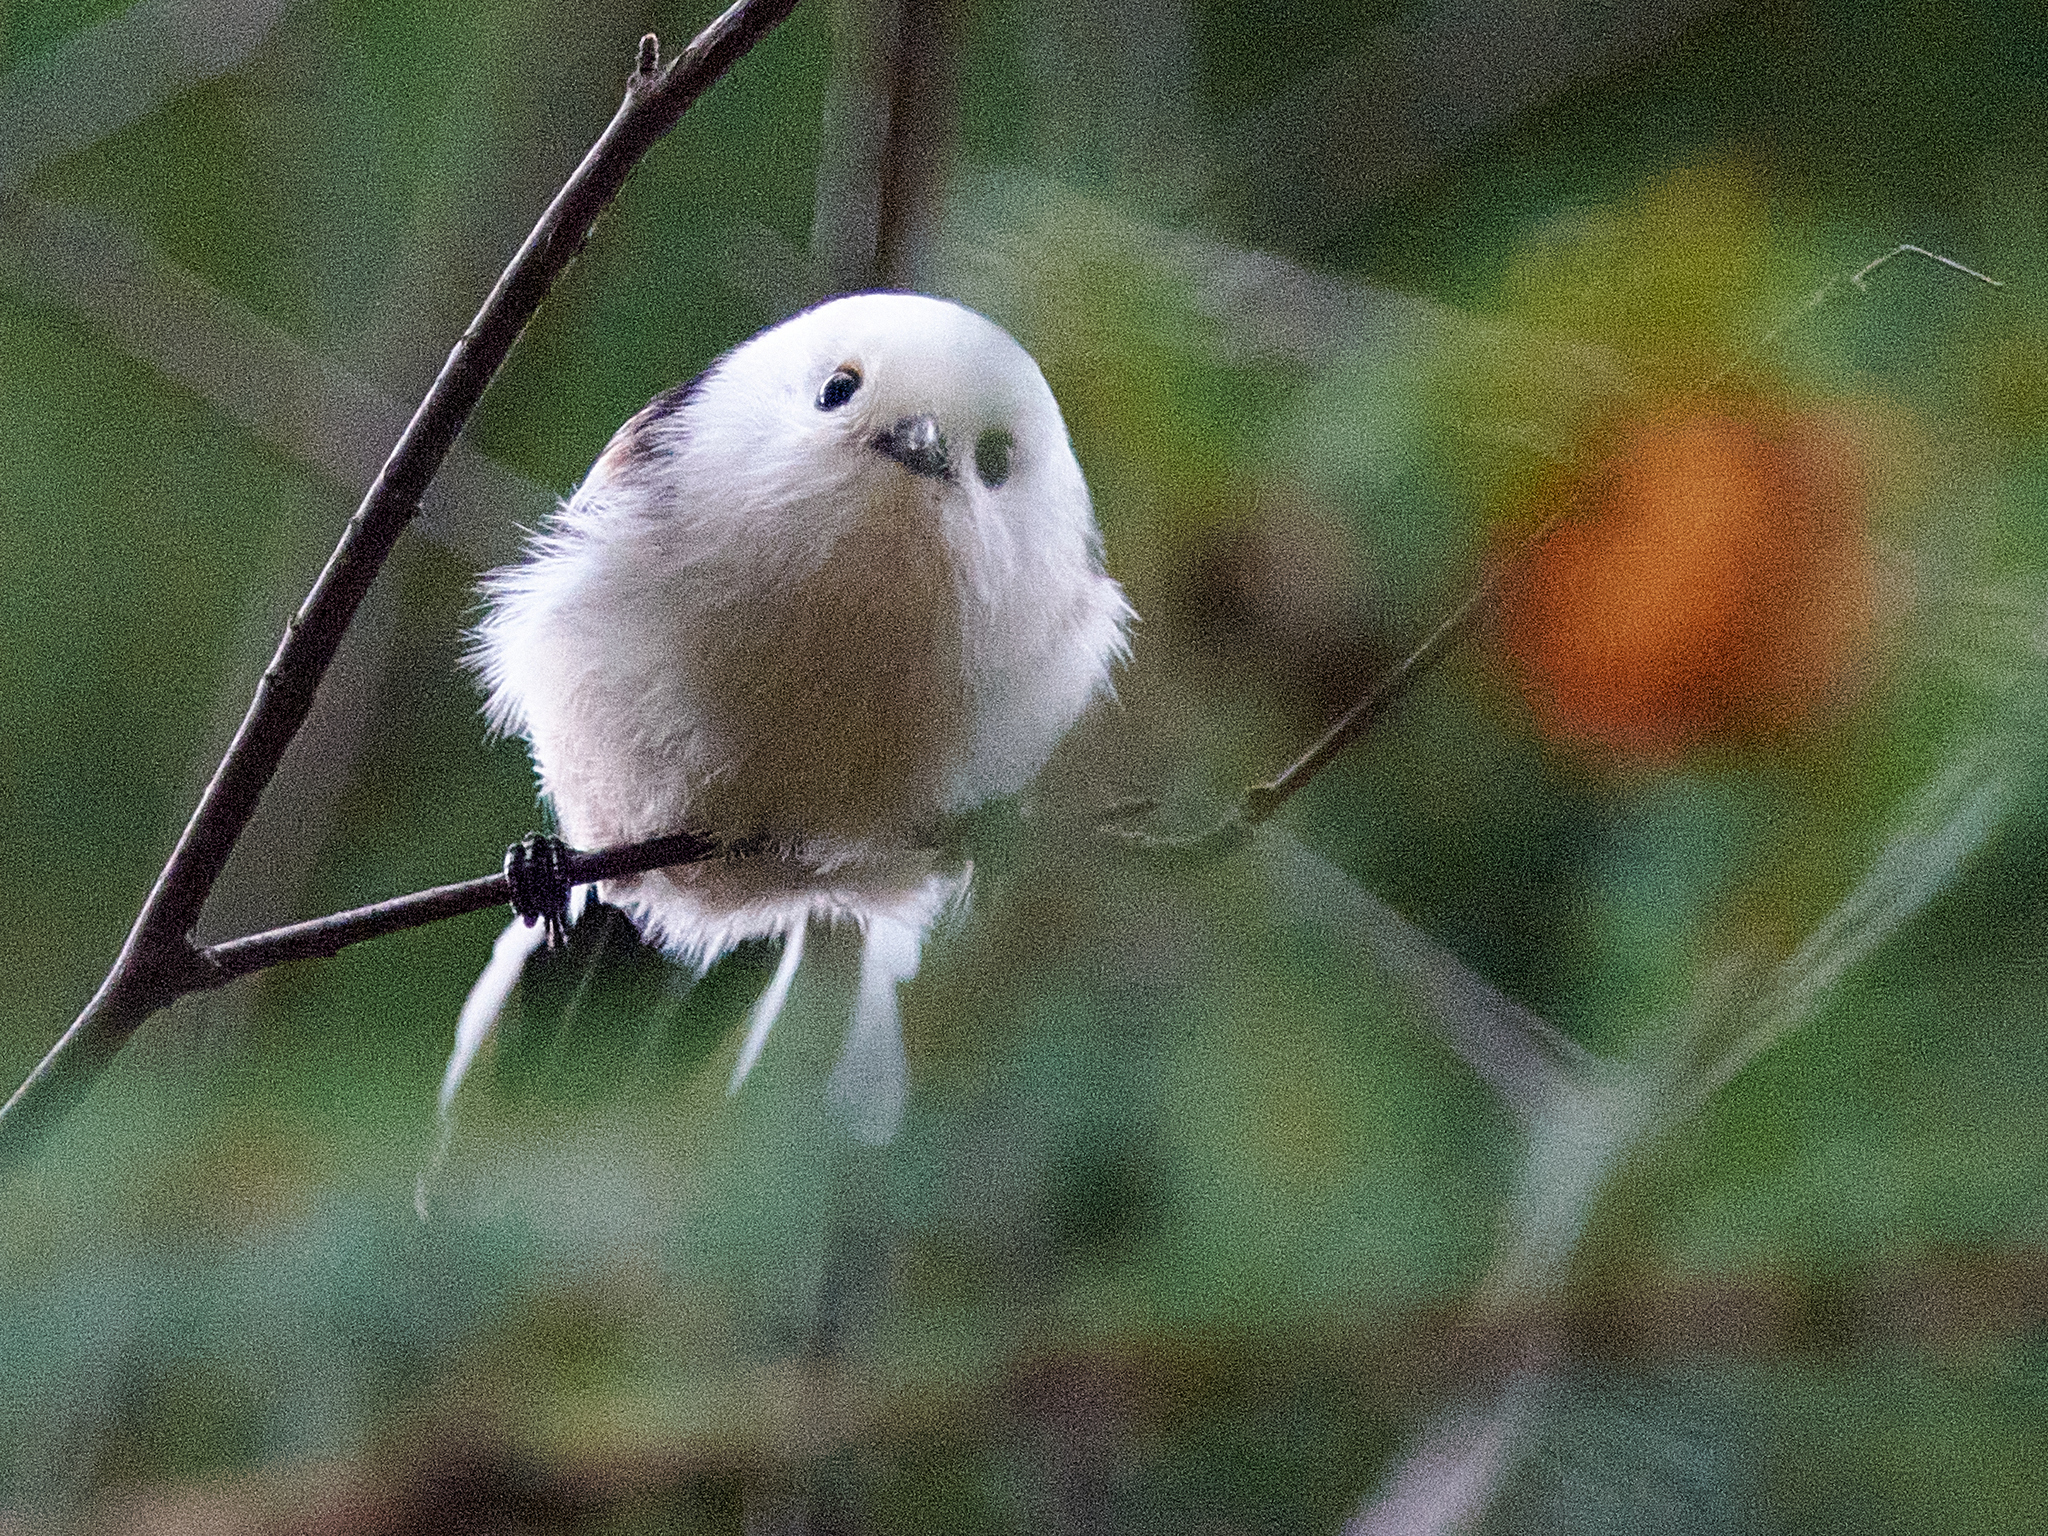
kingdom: Animalia
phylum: Chordata
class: Aves
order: Passeriformes
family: Aegithalidae
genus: Aegithalos
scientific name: Aegithalos caudatus
